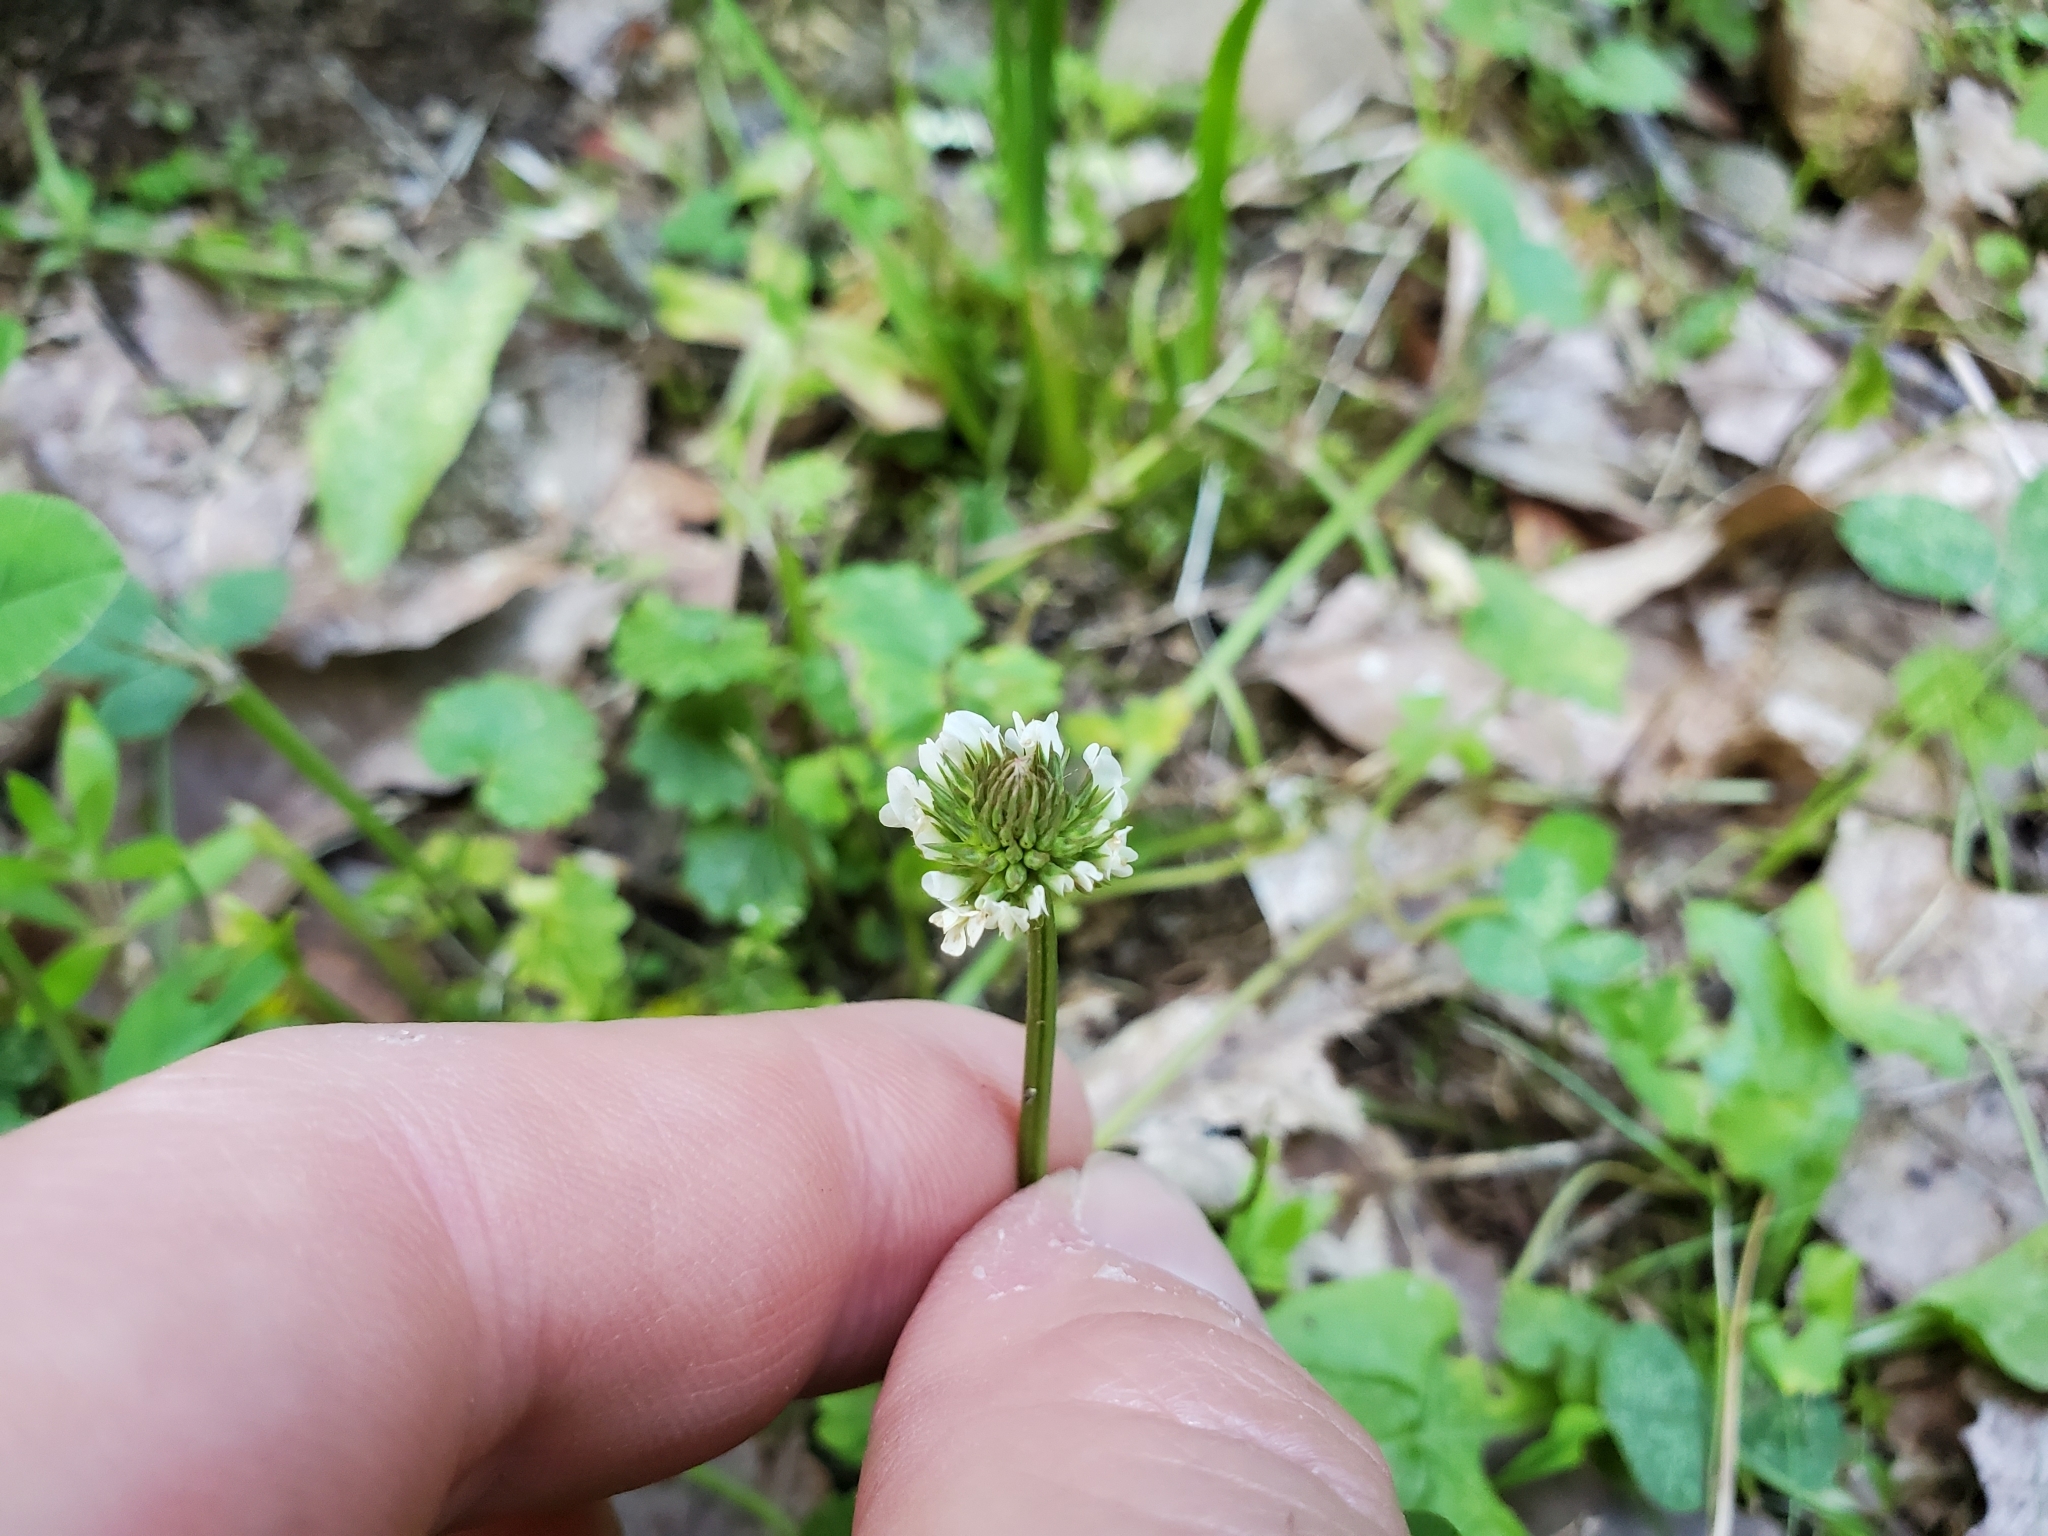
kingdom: Plantae
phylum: Tracheophyta
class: Magnoliopsida
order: Fabales
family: Fabaceae
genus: Trifolium
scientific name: Trifolium repens
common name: White clover
